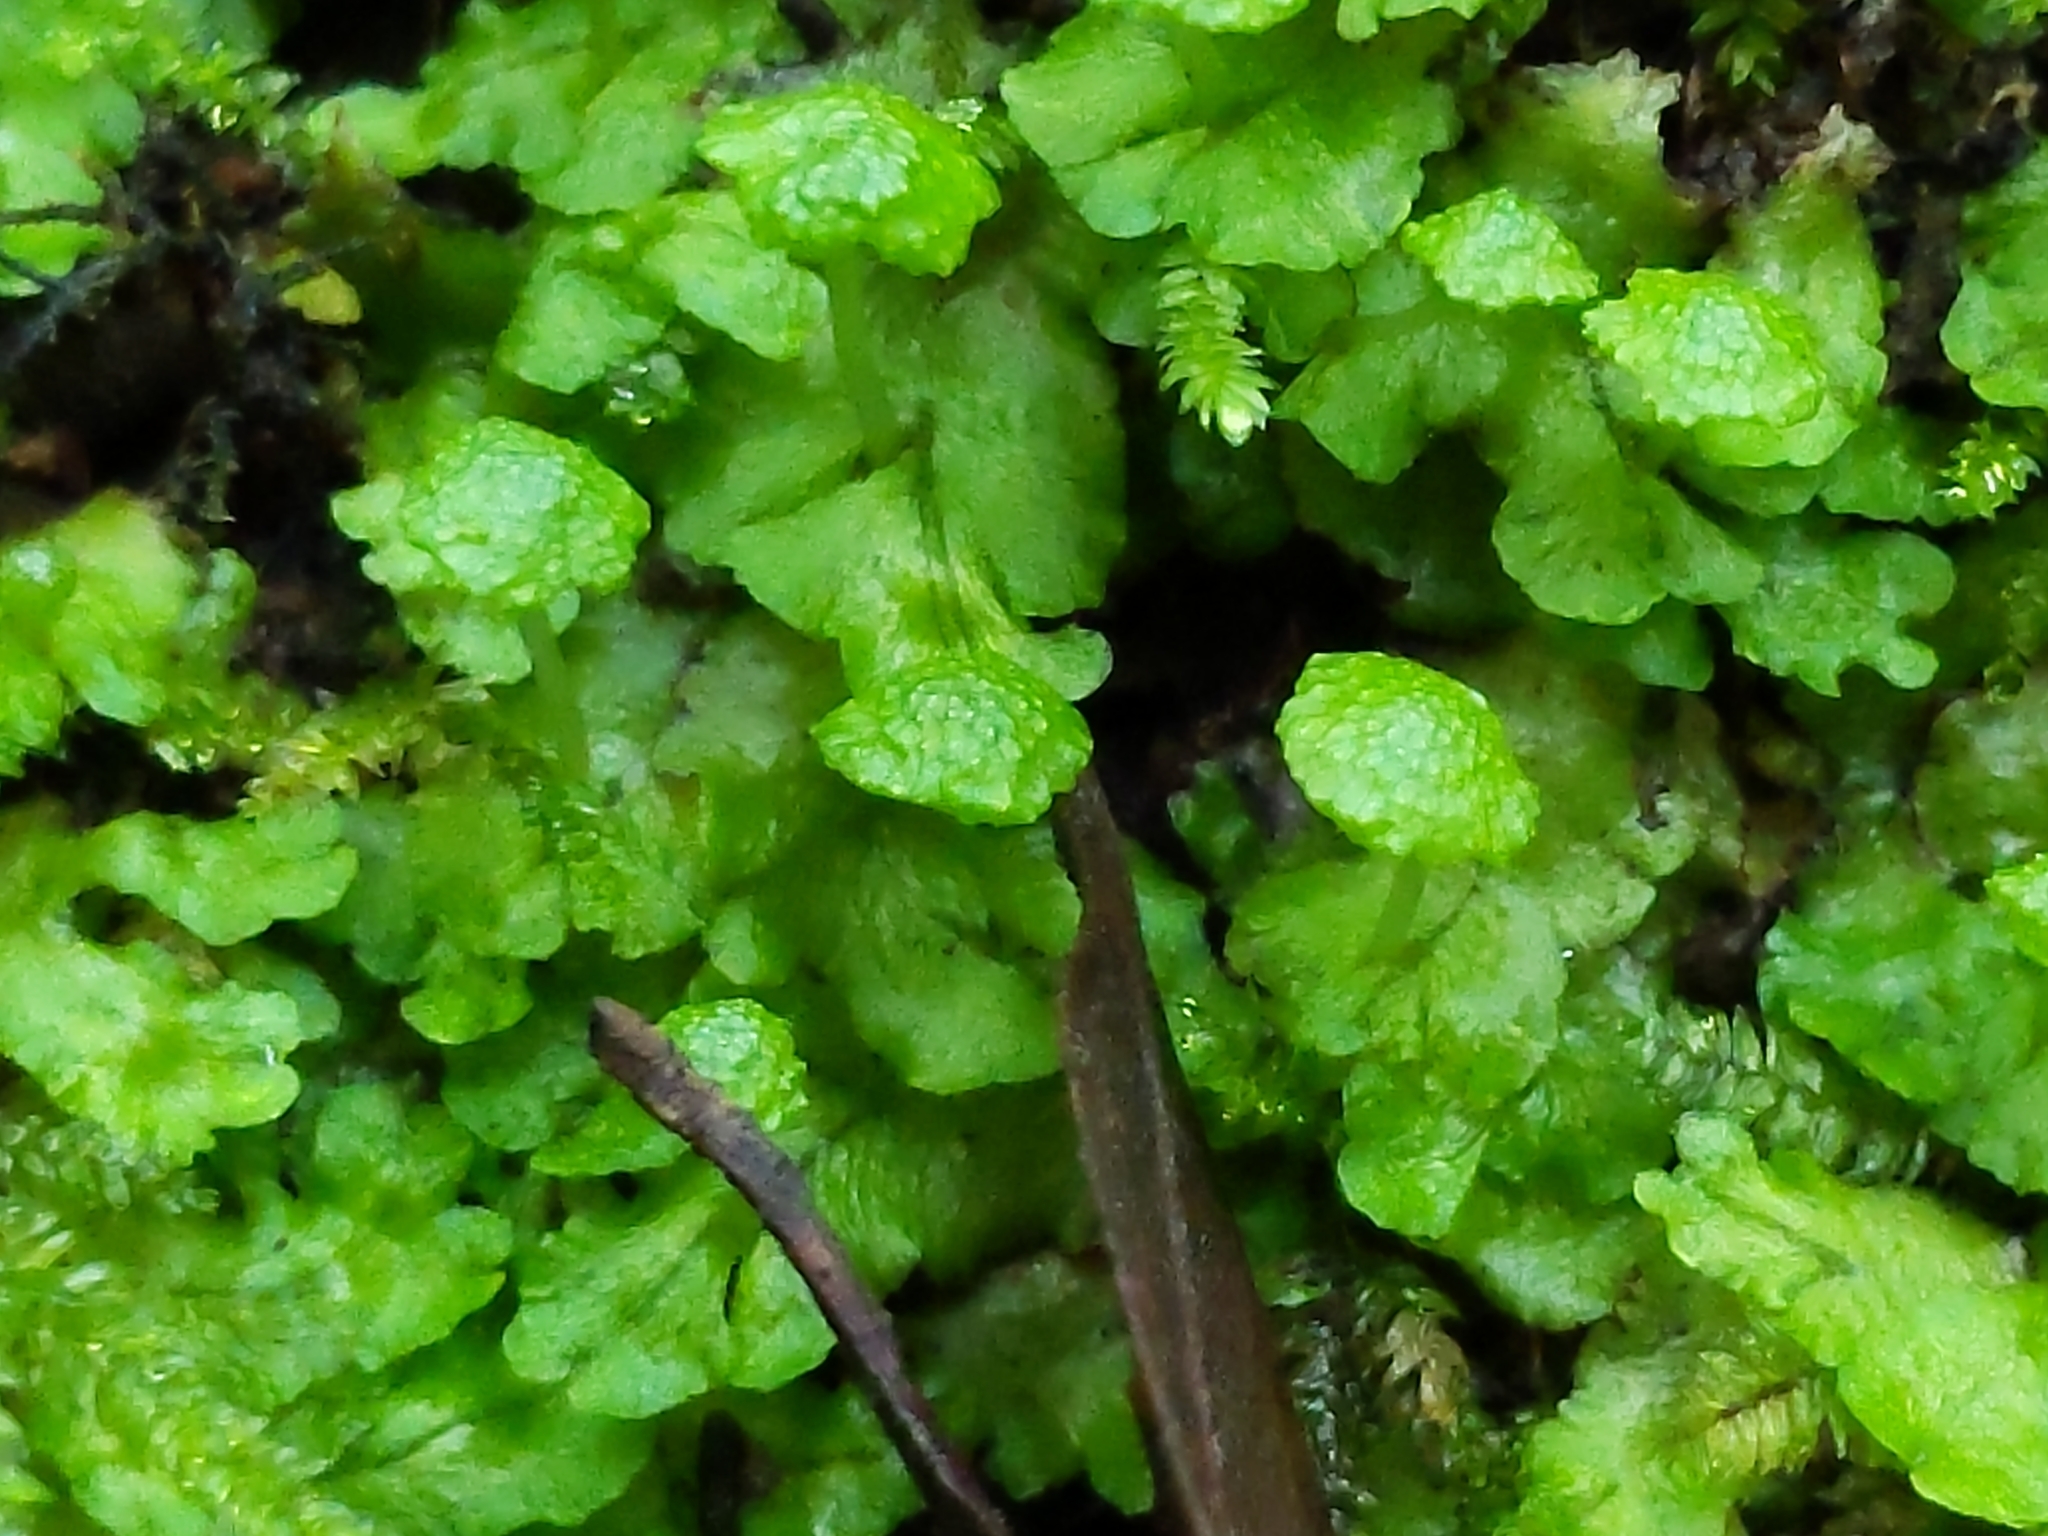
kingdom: Plantae
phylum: Marchantiophyta
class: Marchantiopsida
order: Marchantiales
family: Aytoniaceae
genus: Cryptomitrium
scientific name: Cryptomitrium tenerum
